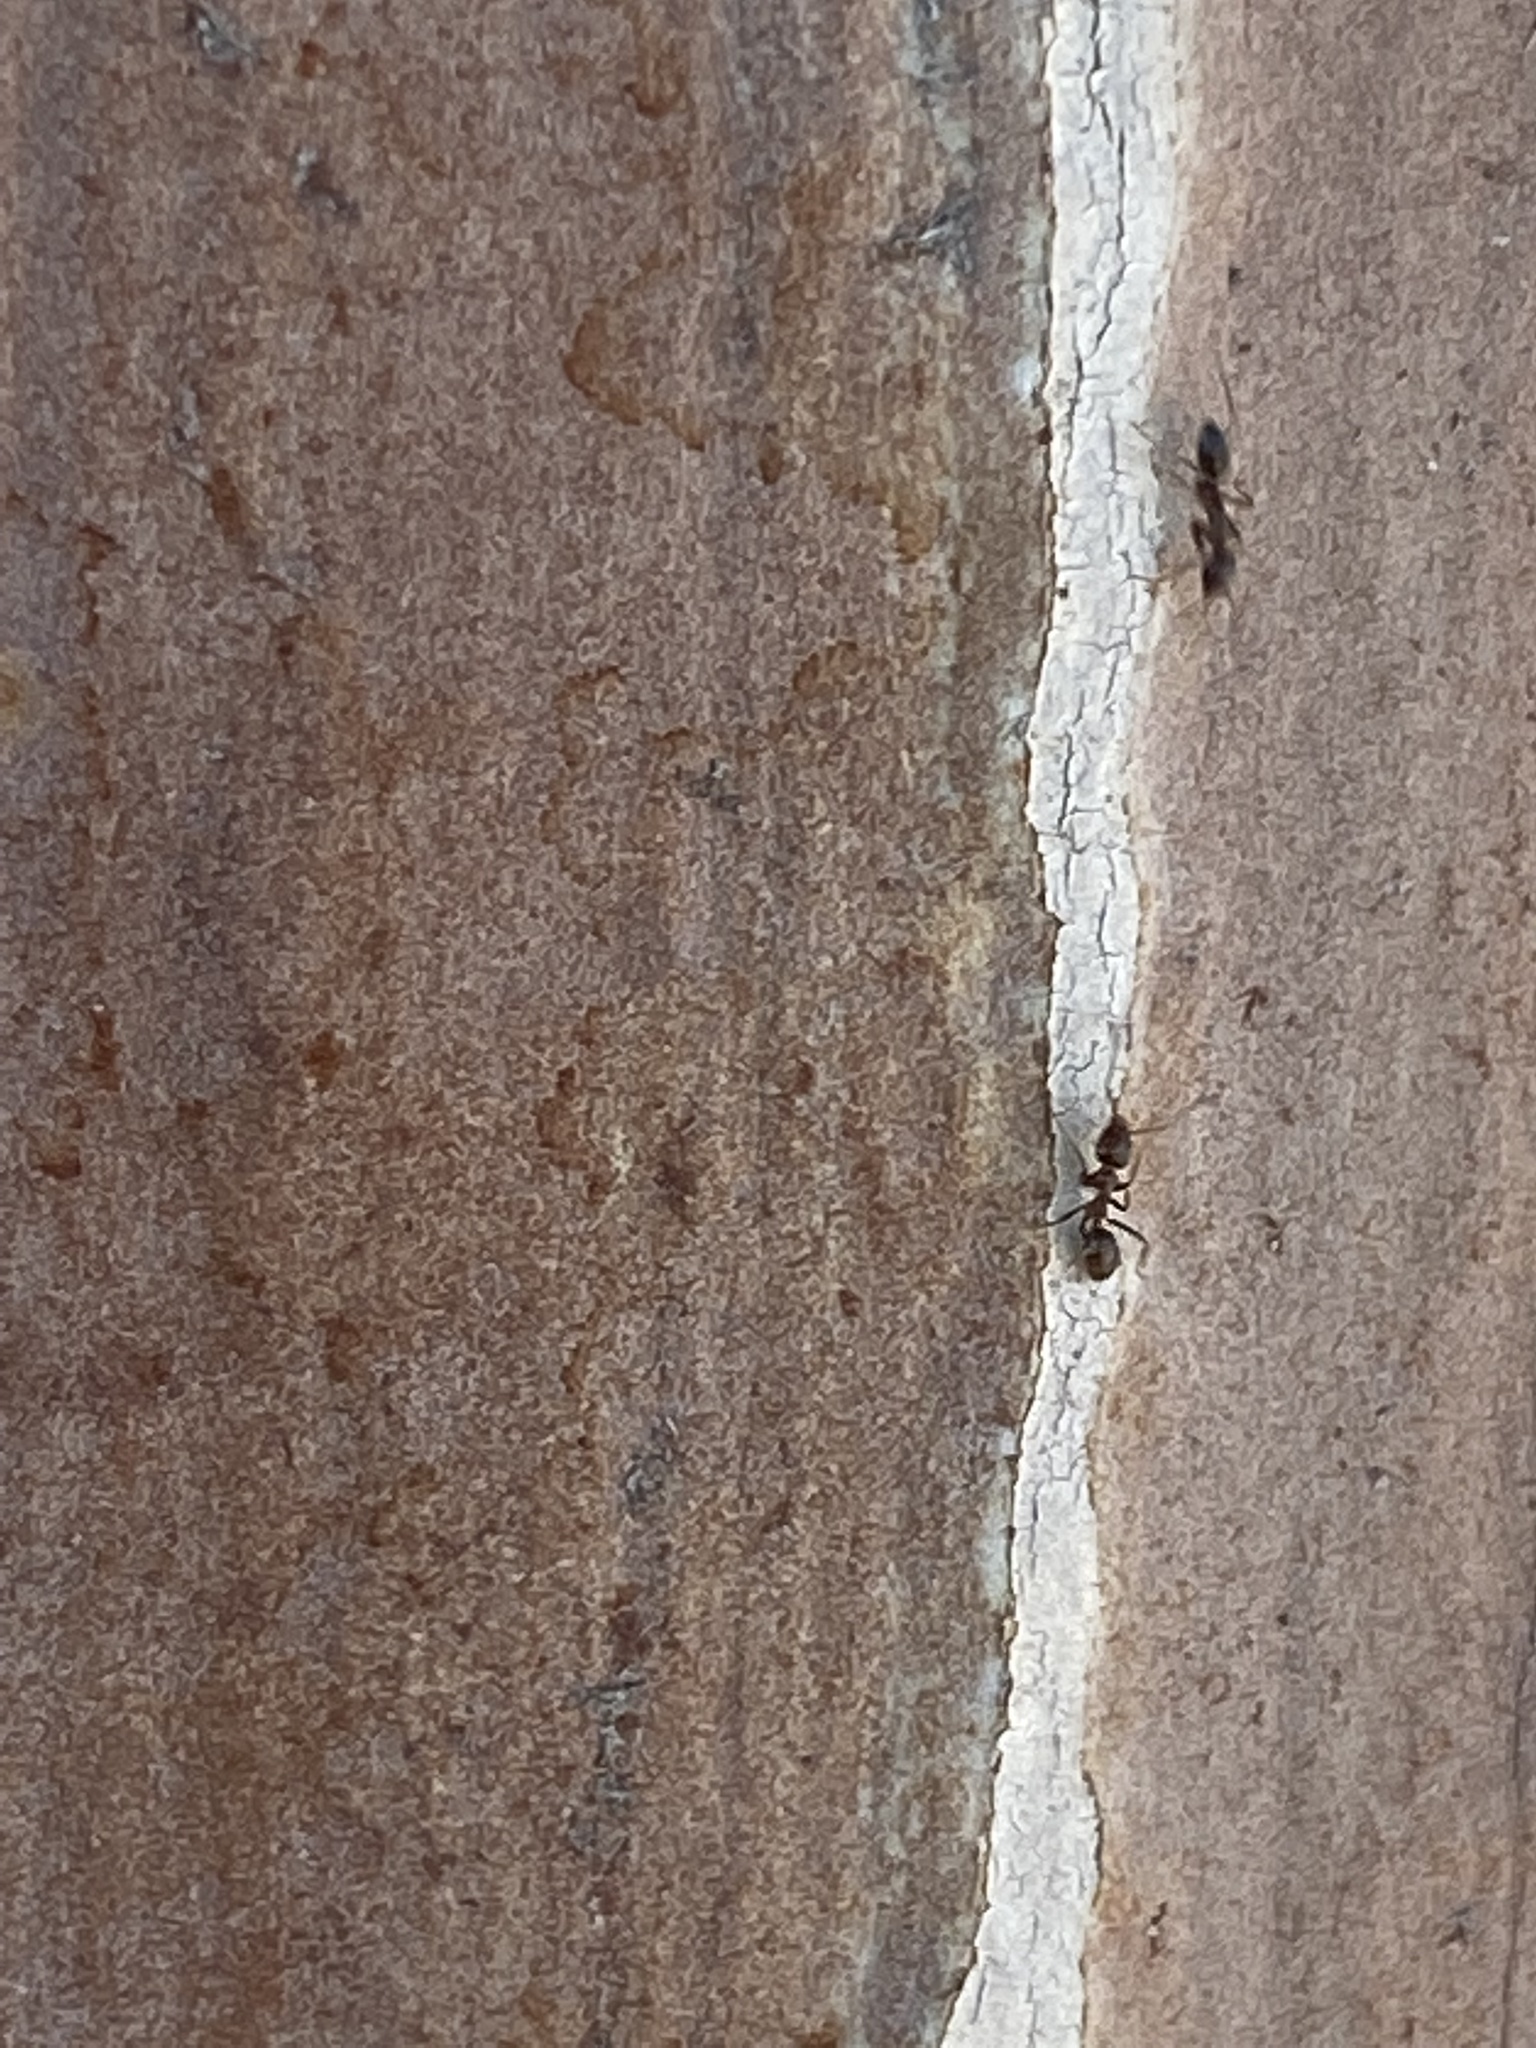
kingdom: Animalia
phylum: Arthropoda
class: Insecta
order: Hymenoptera
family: Formicidae
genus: Linepithema
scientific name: Linepithema humile
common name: Argentine ant
